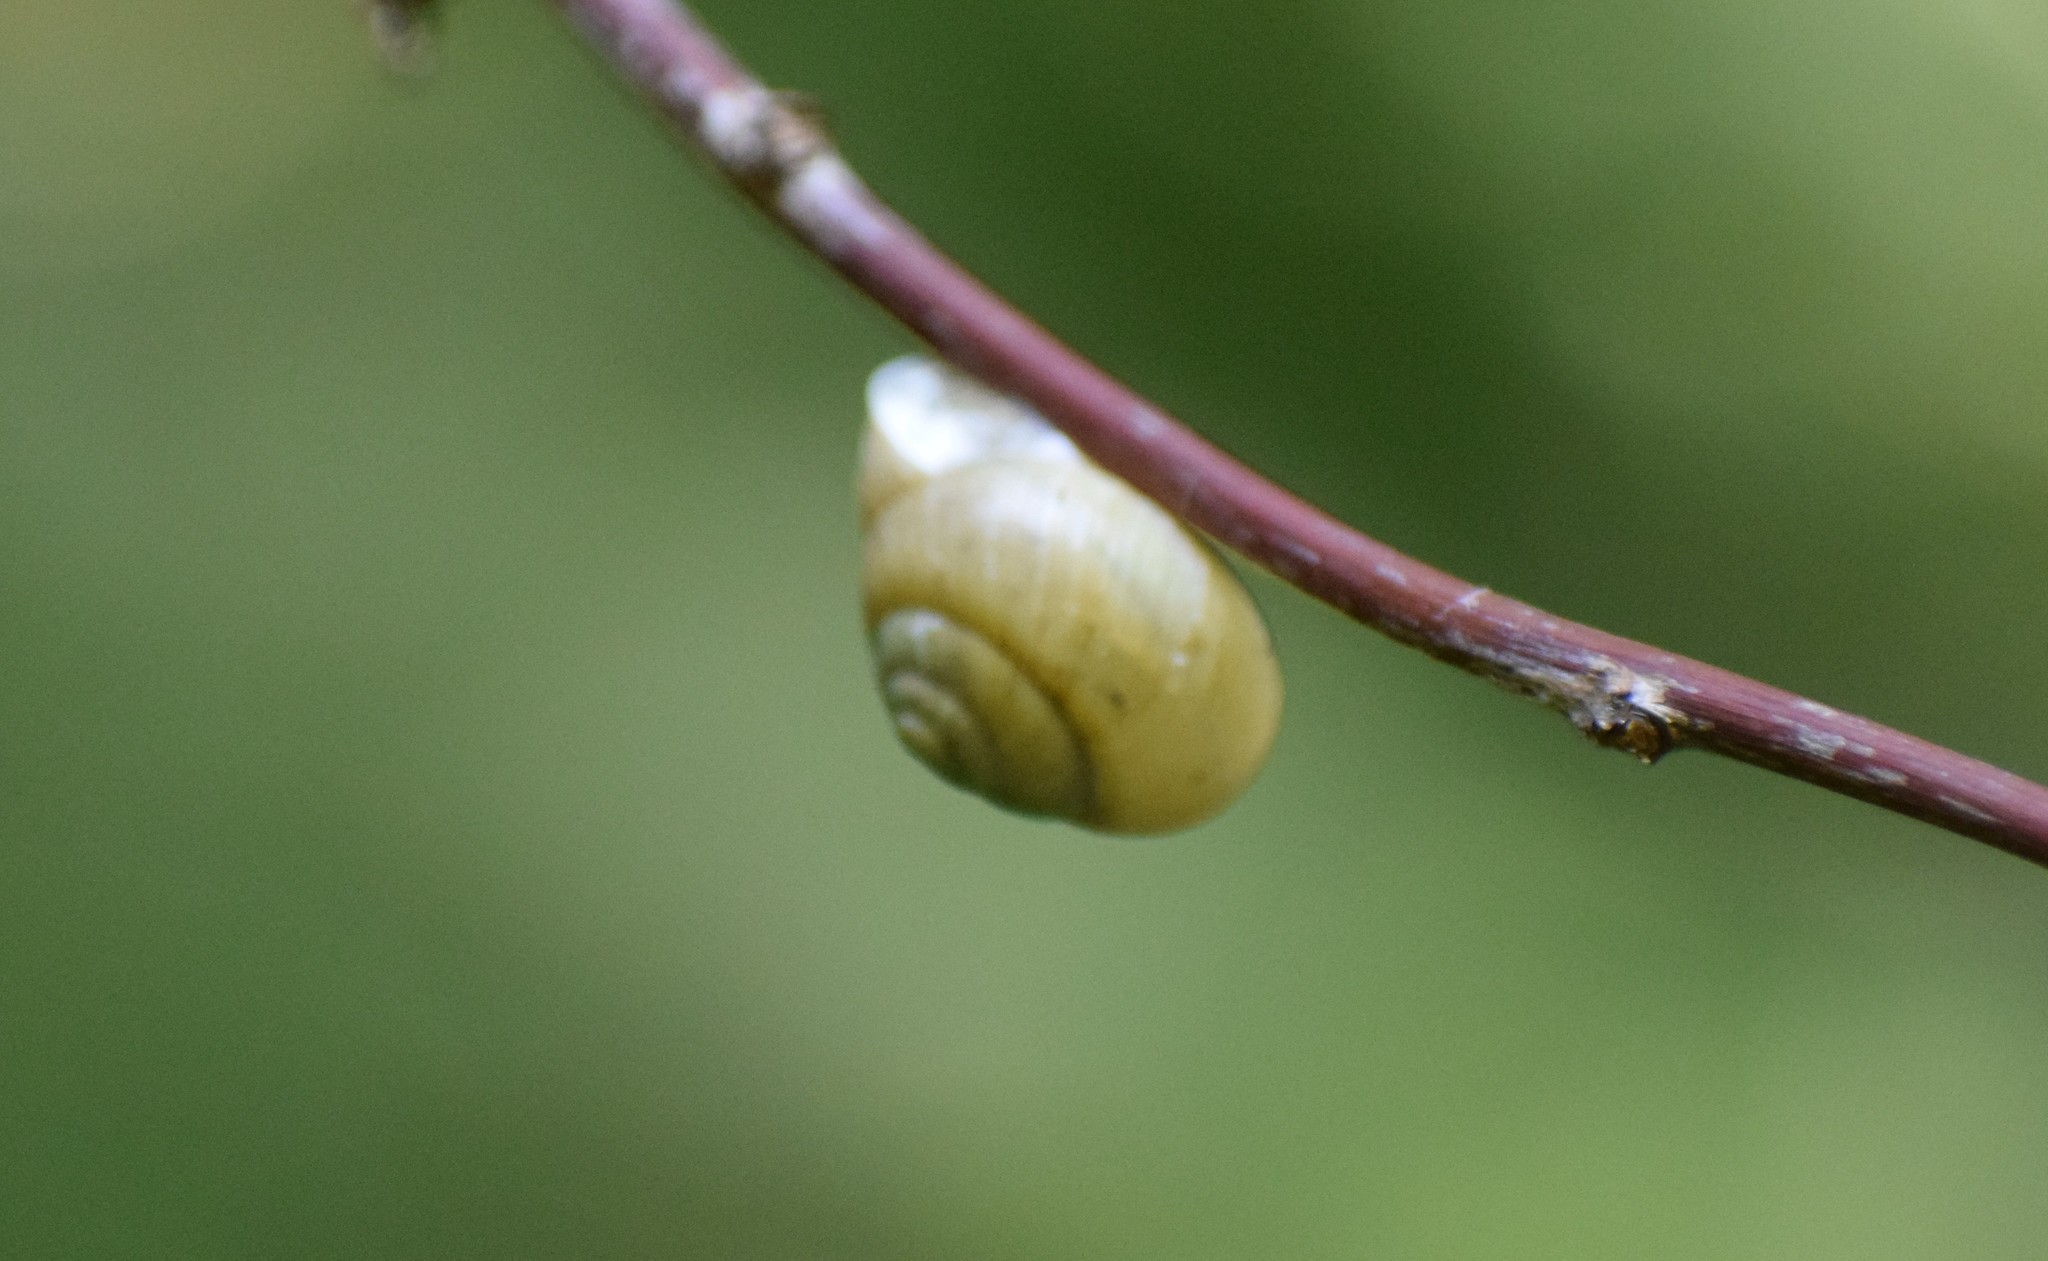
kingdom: Animalia
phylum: Mollusca
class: Gastropoda
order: Stylommatophora
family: Helicidae
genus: Cepaea
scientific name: Cepaea hortensis
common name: White-lip gardensnail
